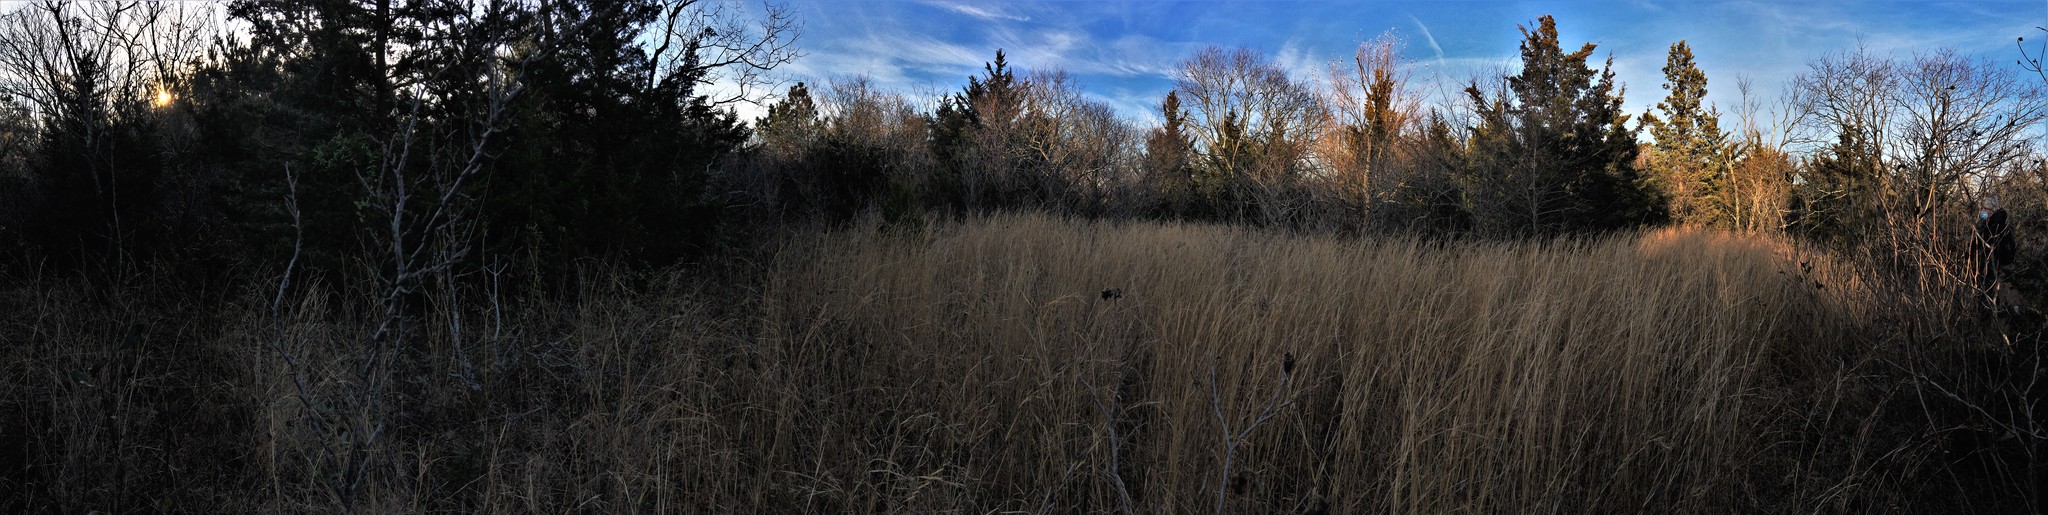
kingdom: Plantae
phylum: Tracheophyta
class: Liliopsida
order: Poales
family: Poaceae
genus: Schizachyrium
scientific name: Schizachyrium scoparium
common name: Little bluestem
